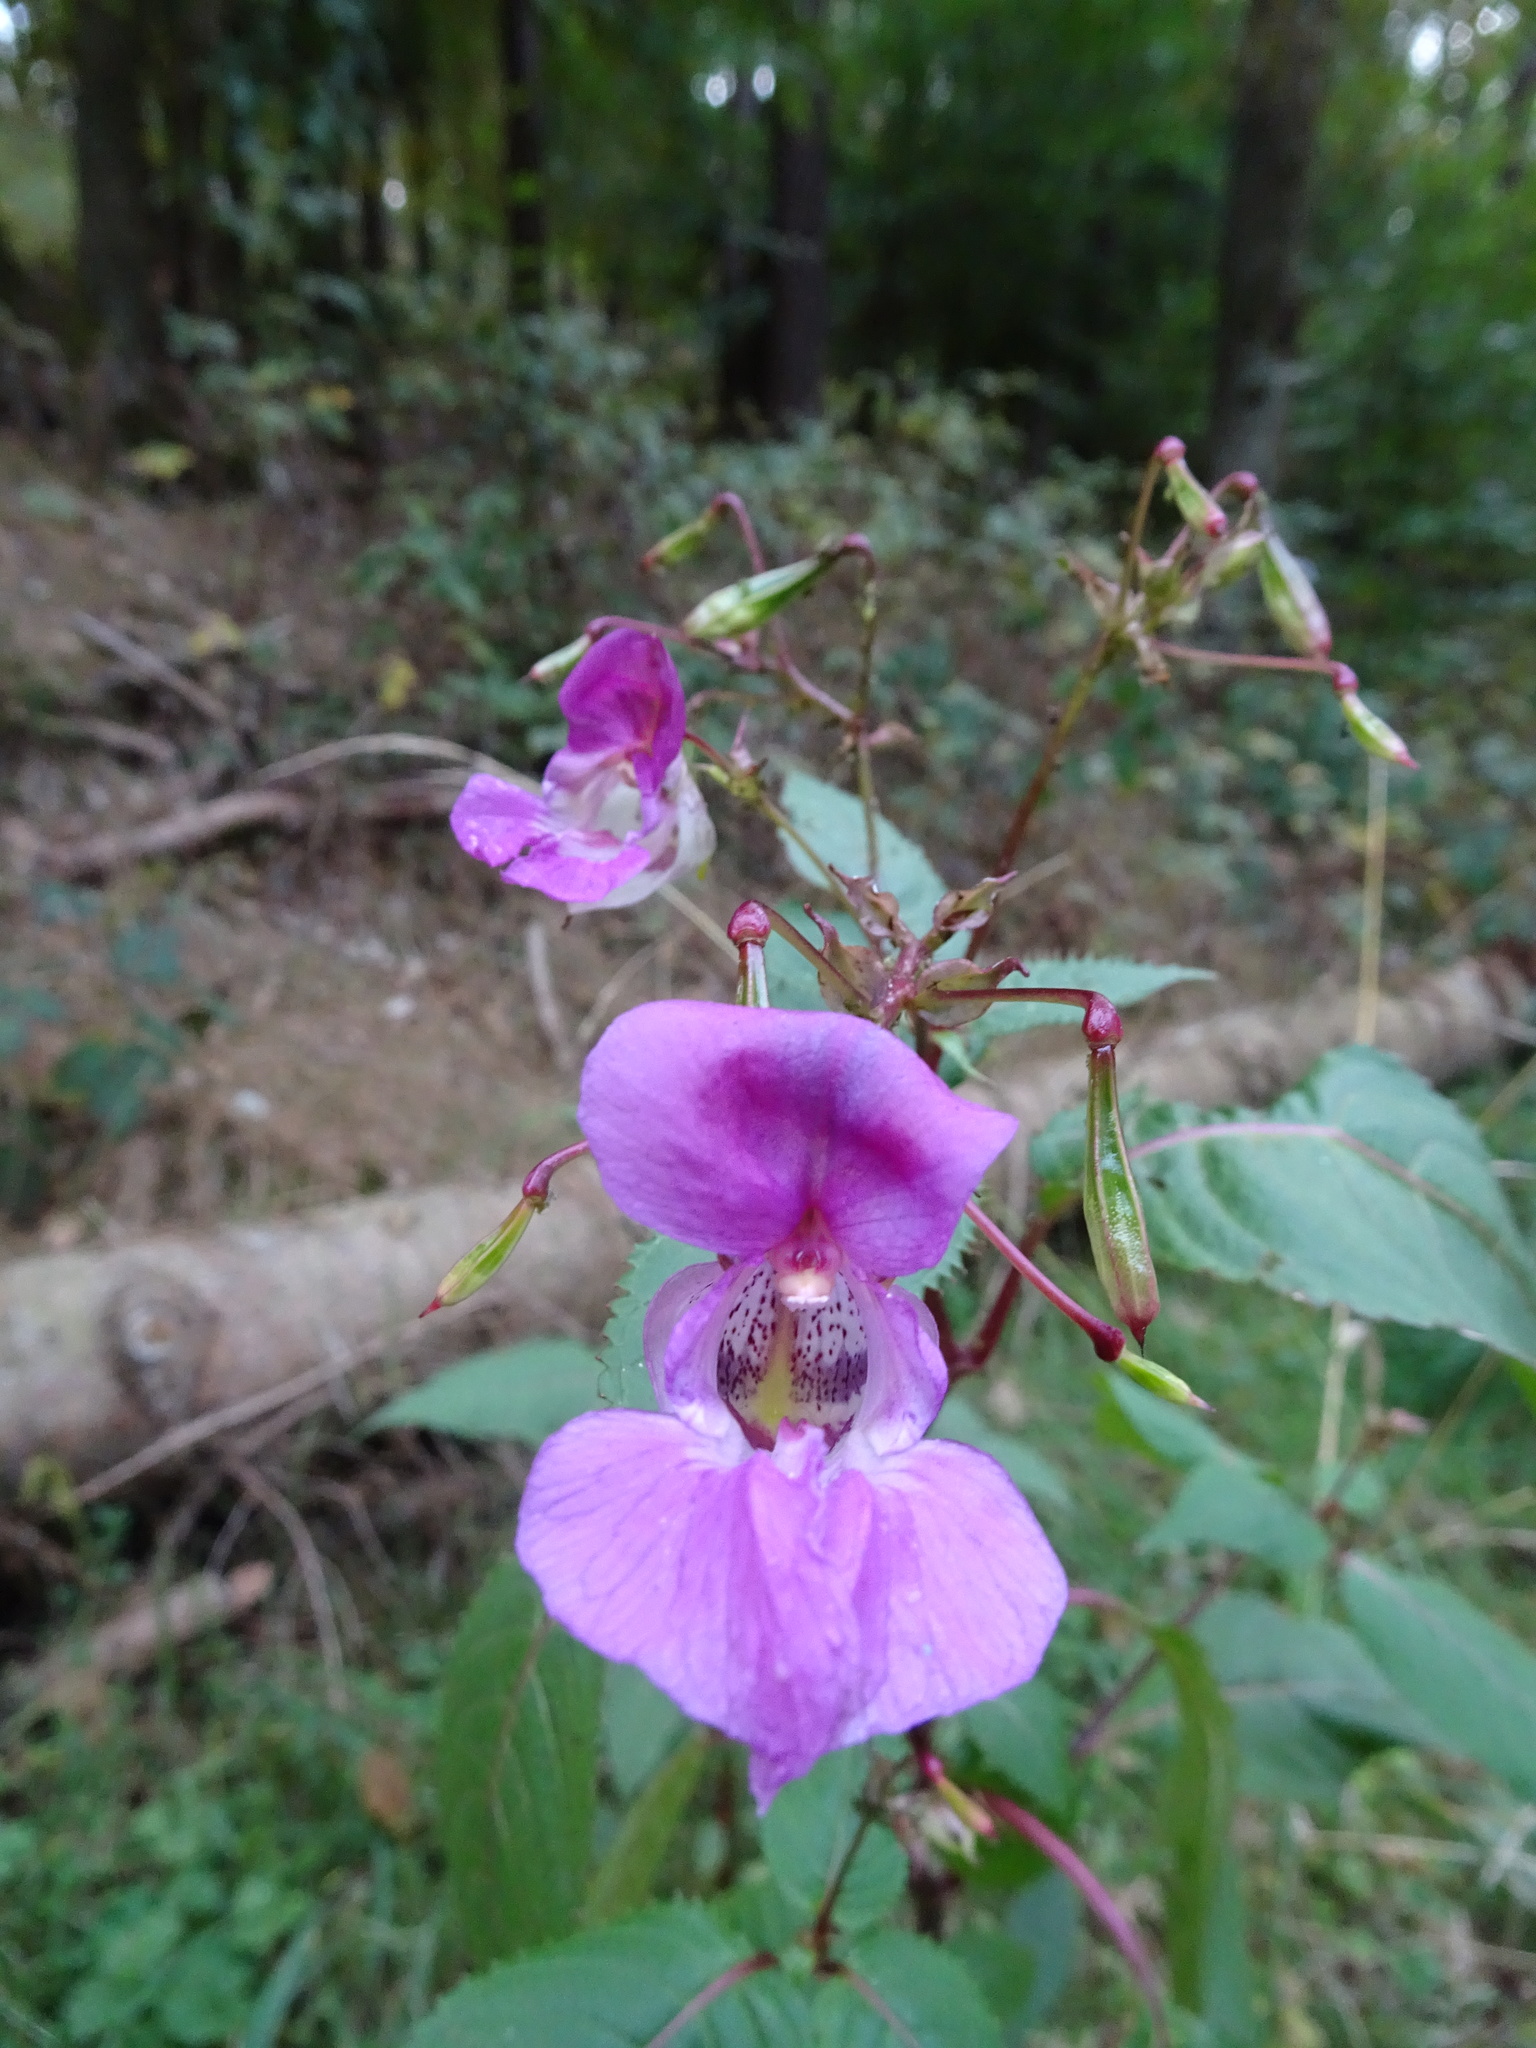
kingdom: Plantae
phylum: Tracheophyta
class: Magnoliopsida
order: Ericales
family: Balsaminaceae
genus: Impatiens
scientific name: Impatiens glandulifera
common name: Himalayan balsam
